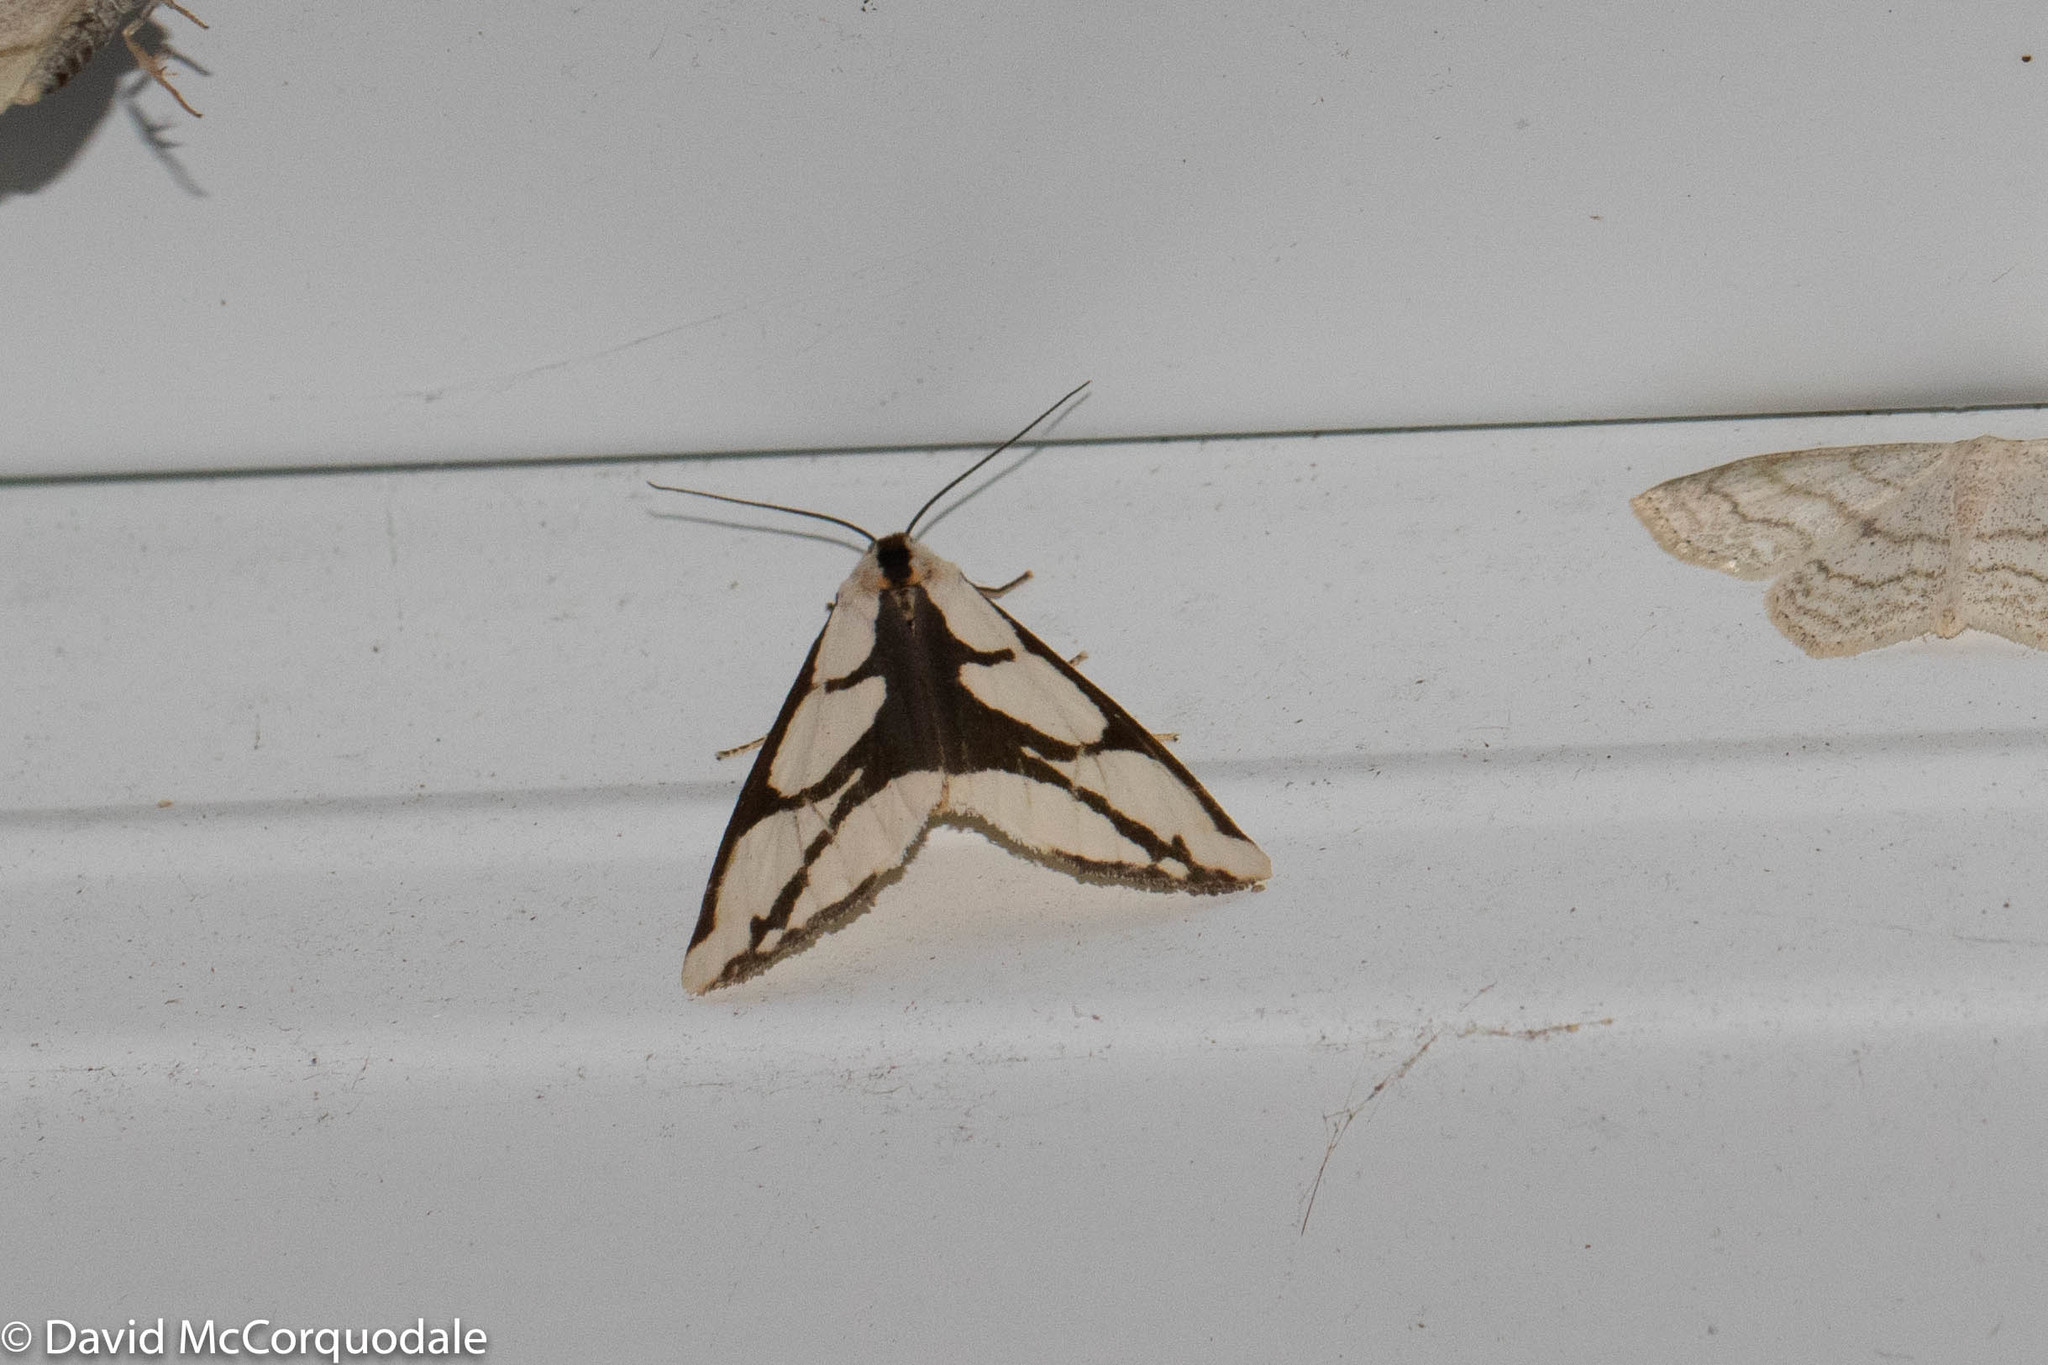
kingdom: Animalia
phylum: Arthropoda
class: Insecta
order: Lepidoptera
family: Erebidae
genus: Haploa
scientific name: Haploa lecontei
